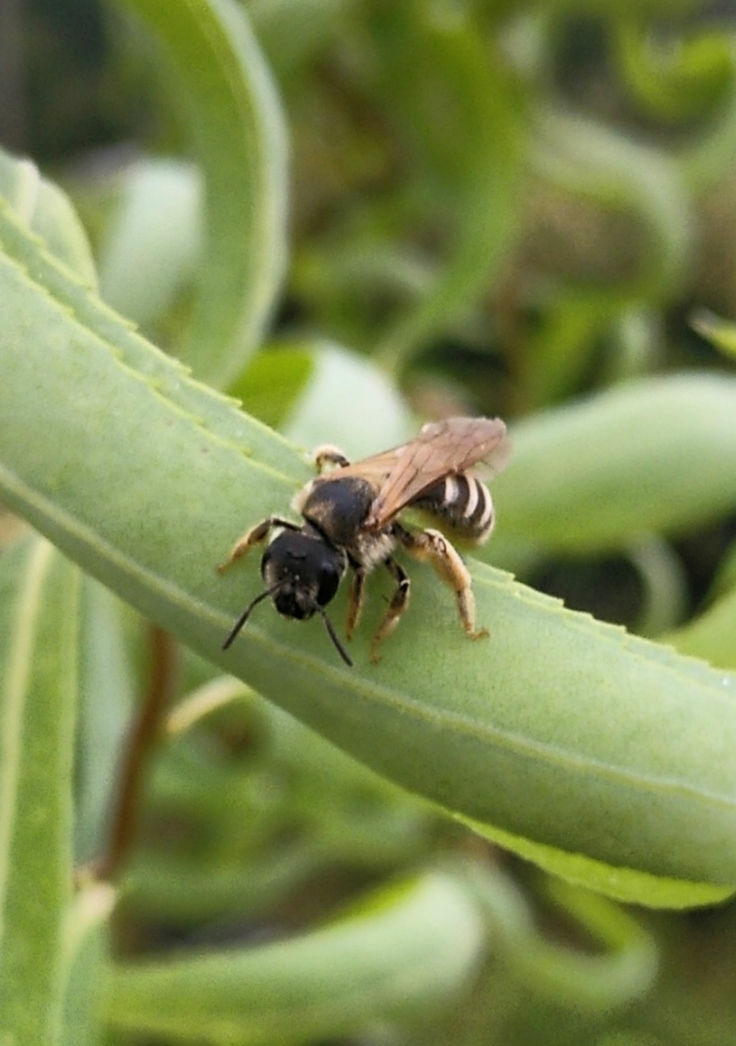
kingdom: Animalia
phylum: Arthropoda
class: Insecta
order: Hymenoptera
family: Halictidae
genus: Halictus
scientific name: Halictus scabiosae
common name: Great banded furrow bee
